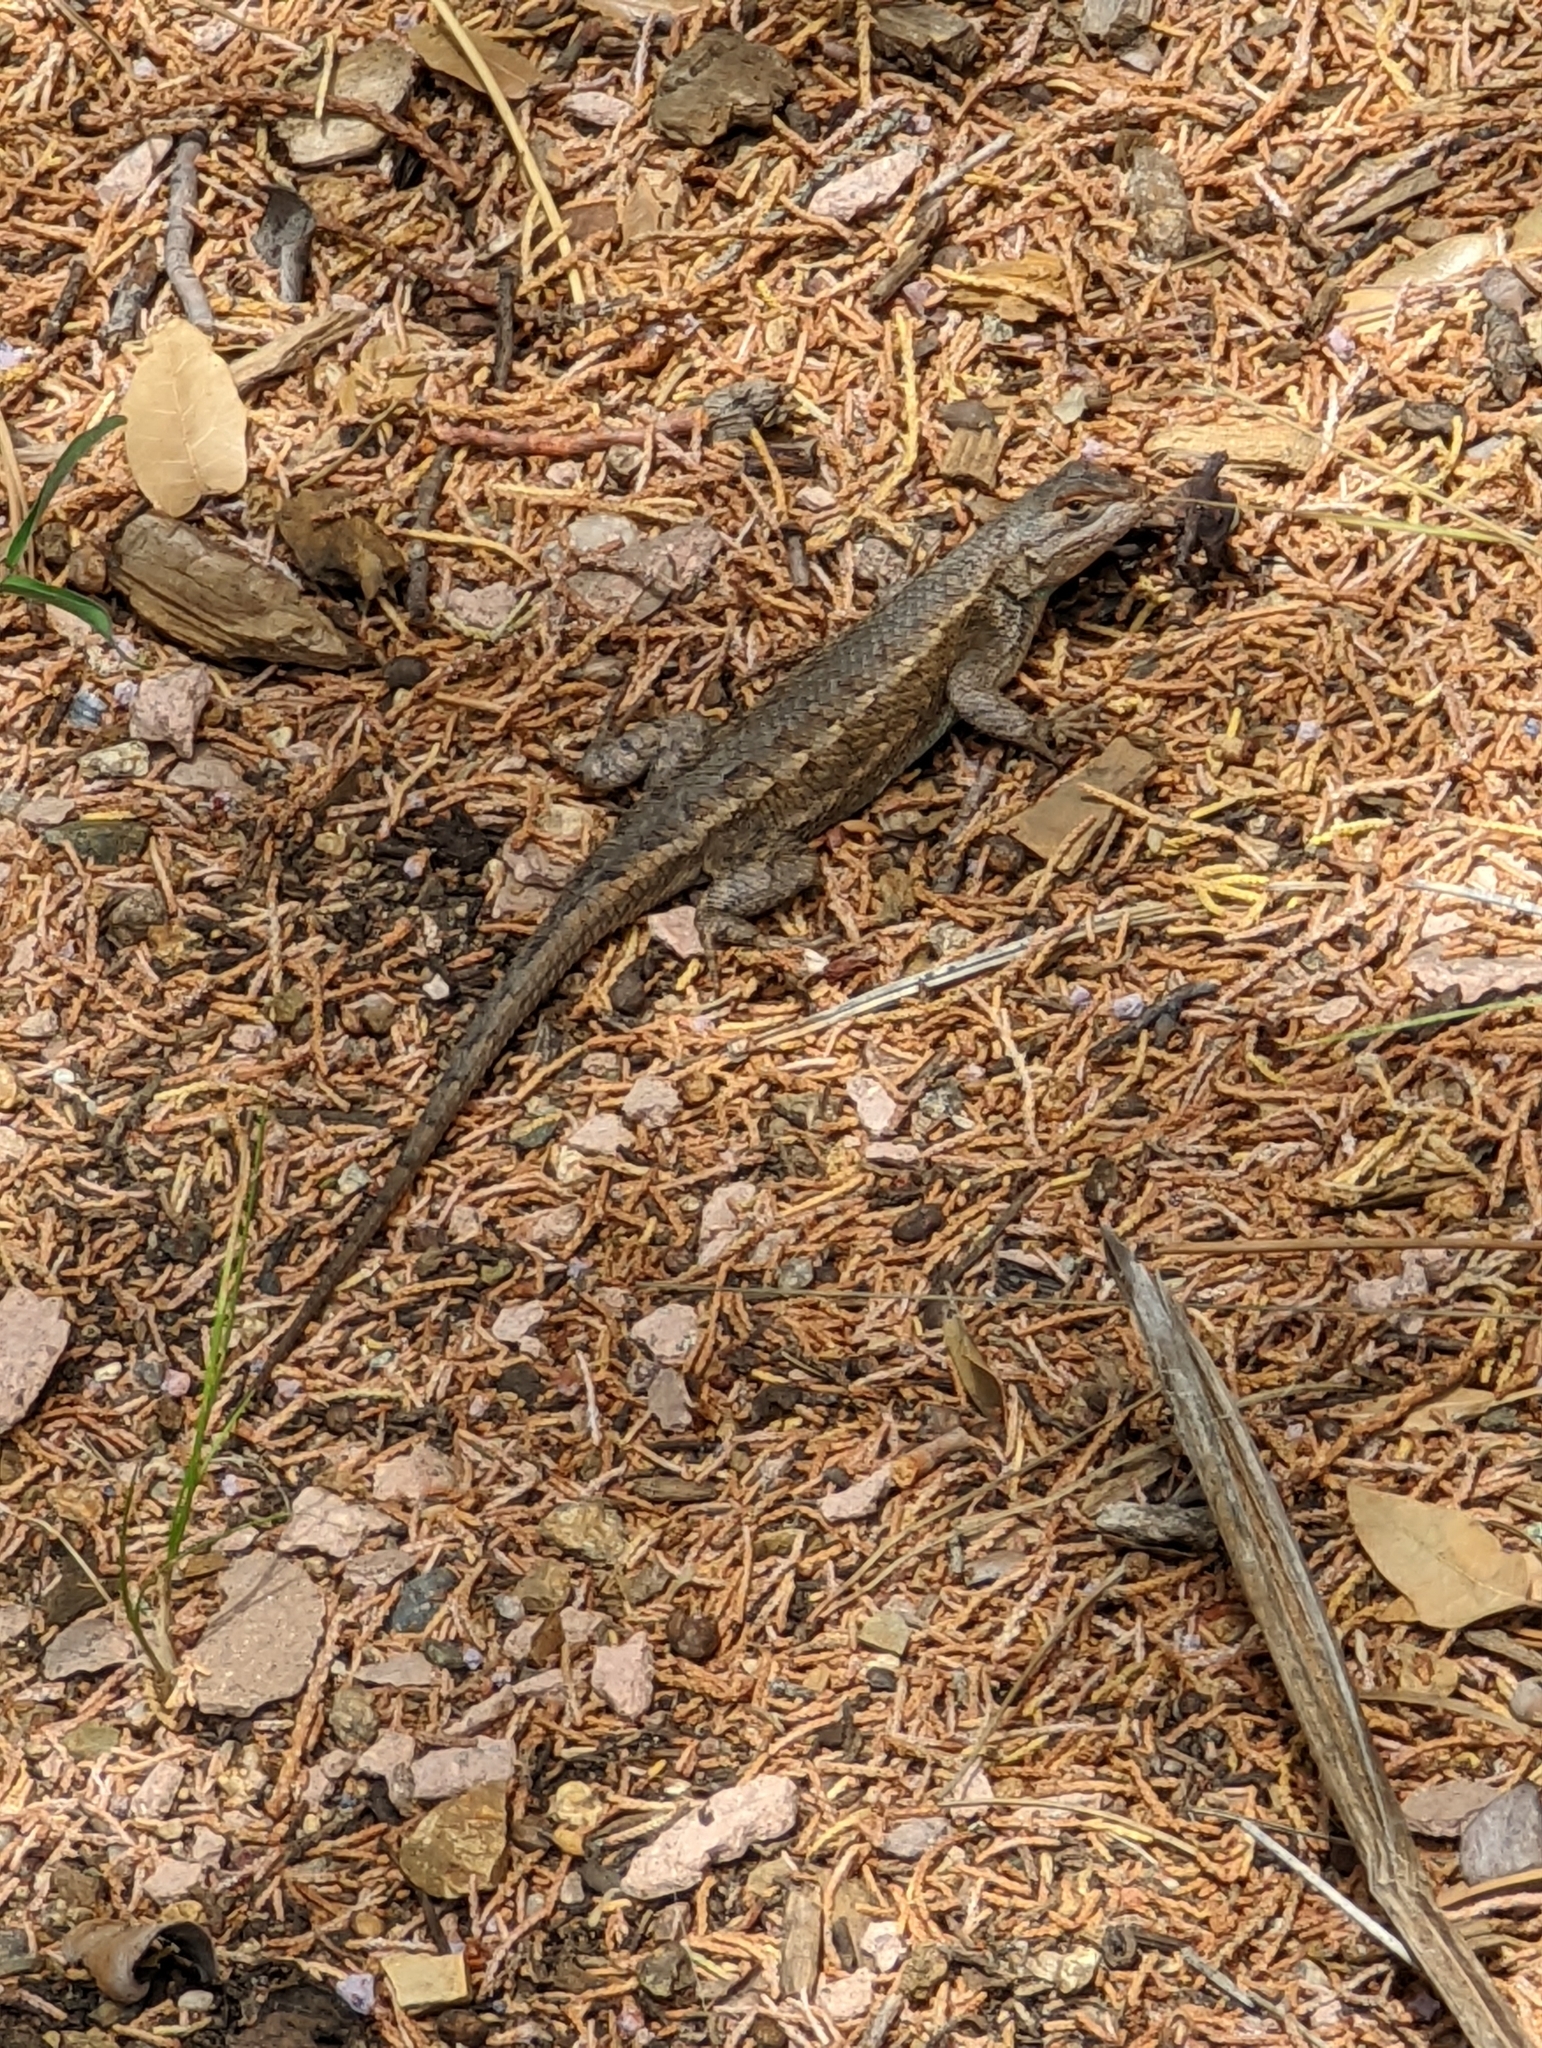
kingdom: Animalia
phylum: Chordata
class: Squamata
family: Phrynosomatidae
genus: Sceloporus
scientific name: Sceloporus tristichus
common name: Plateau fence lizard
